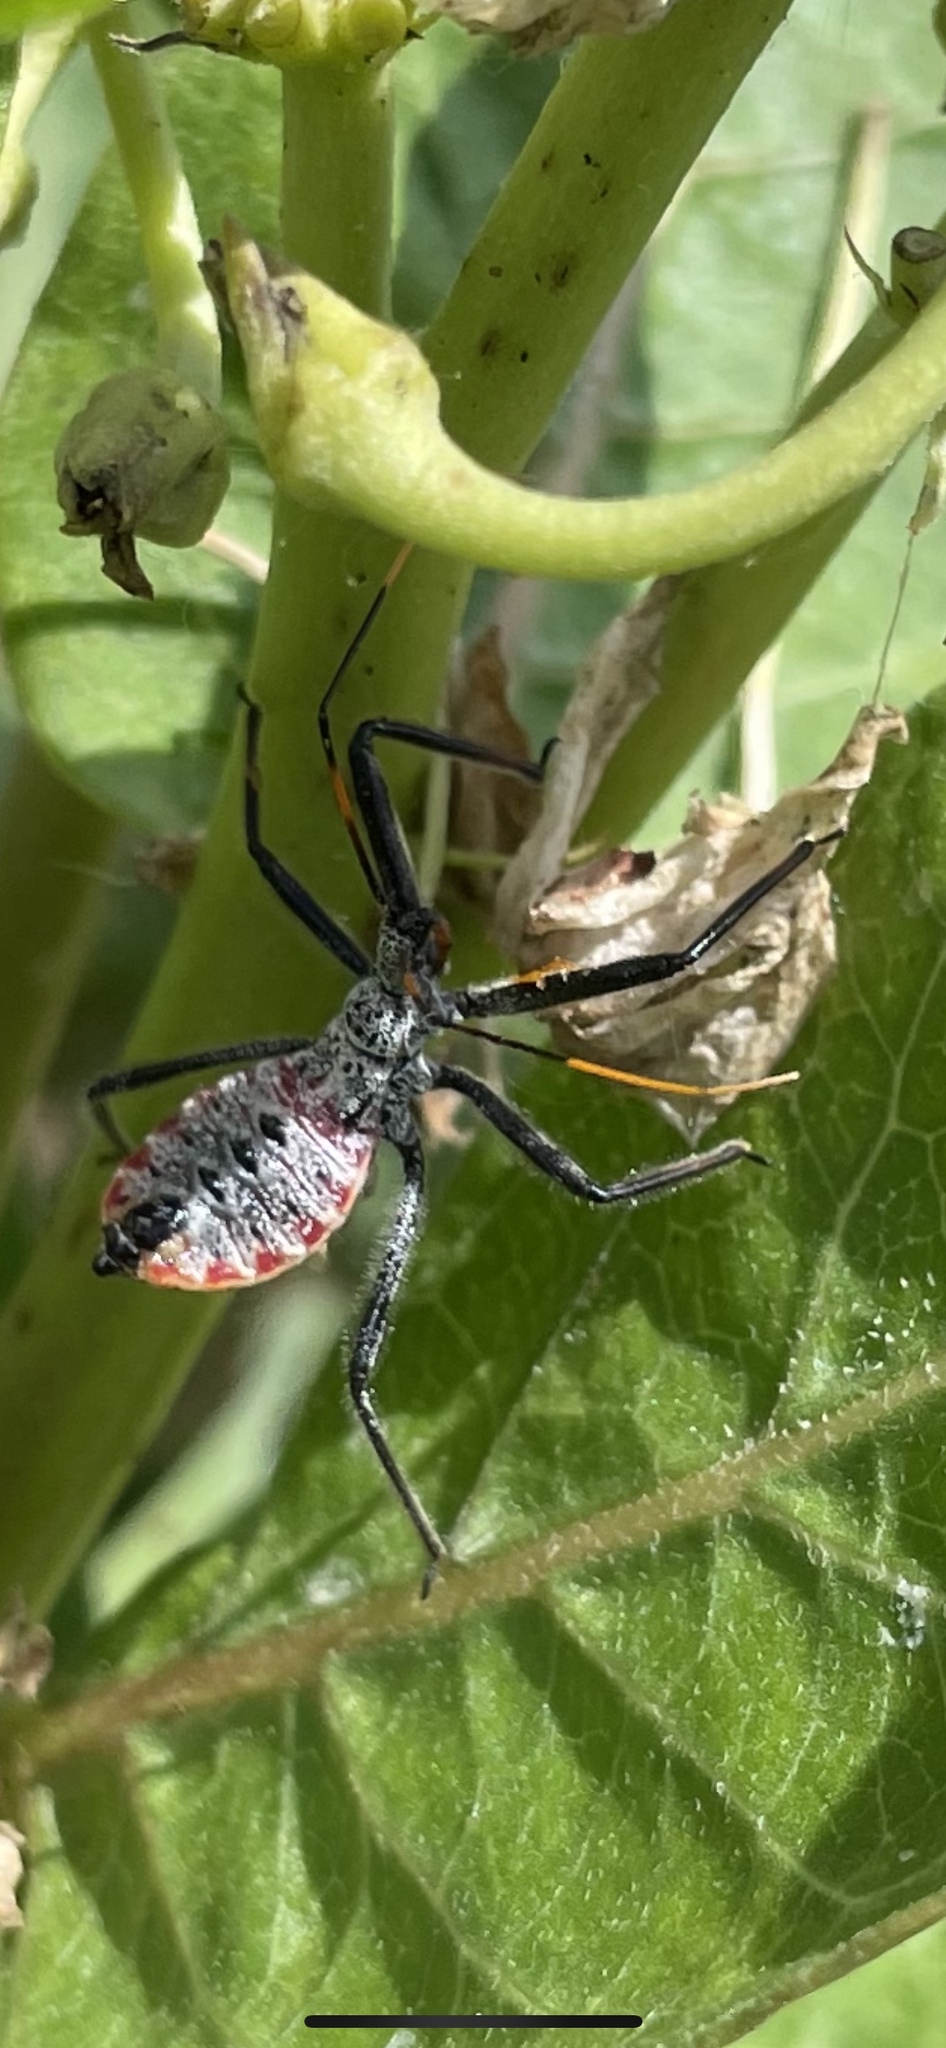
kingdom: Animalia
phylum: Arthropoda
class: Insecta
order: Hemiptera
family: Reduviidae
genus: Arilus
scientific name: Arilus cristatus
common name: North american wheel bug
